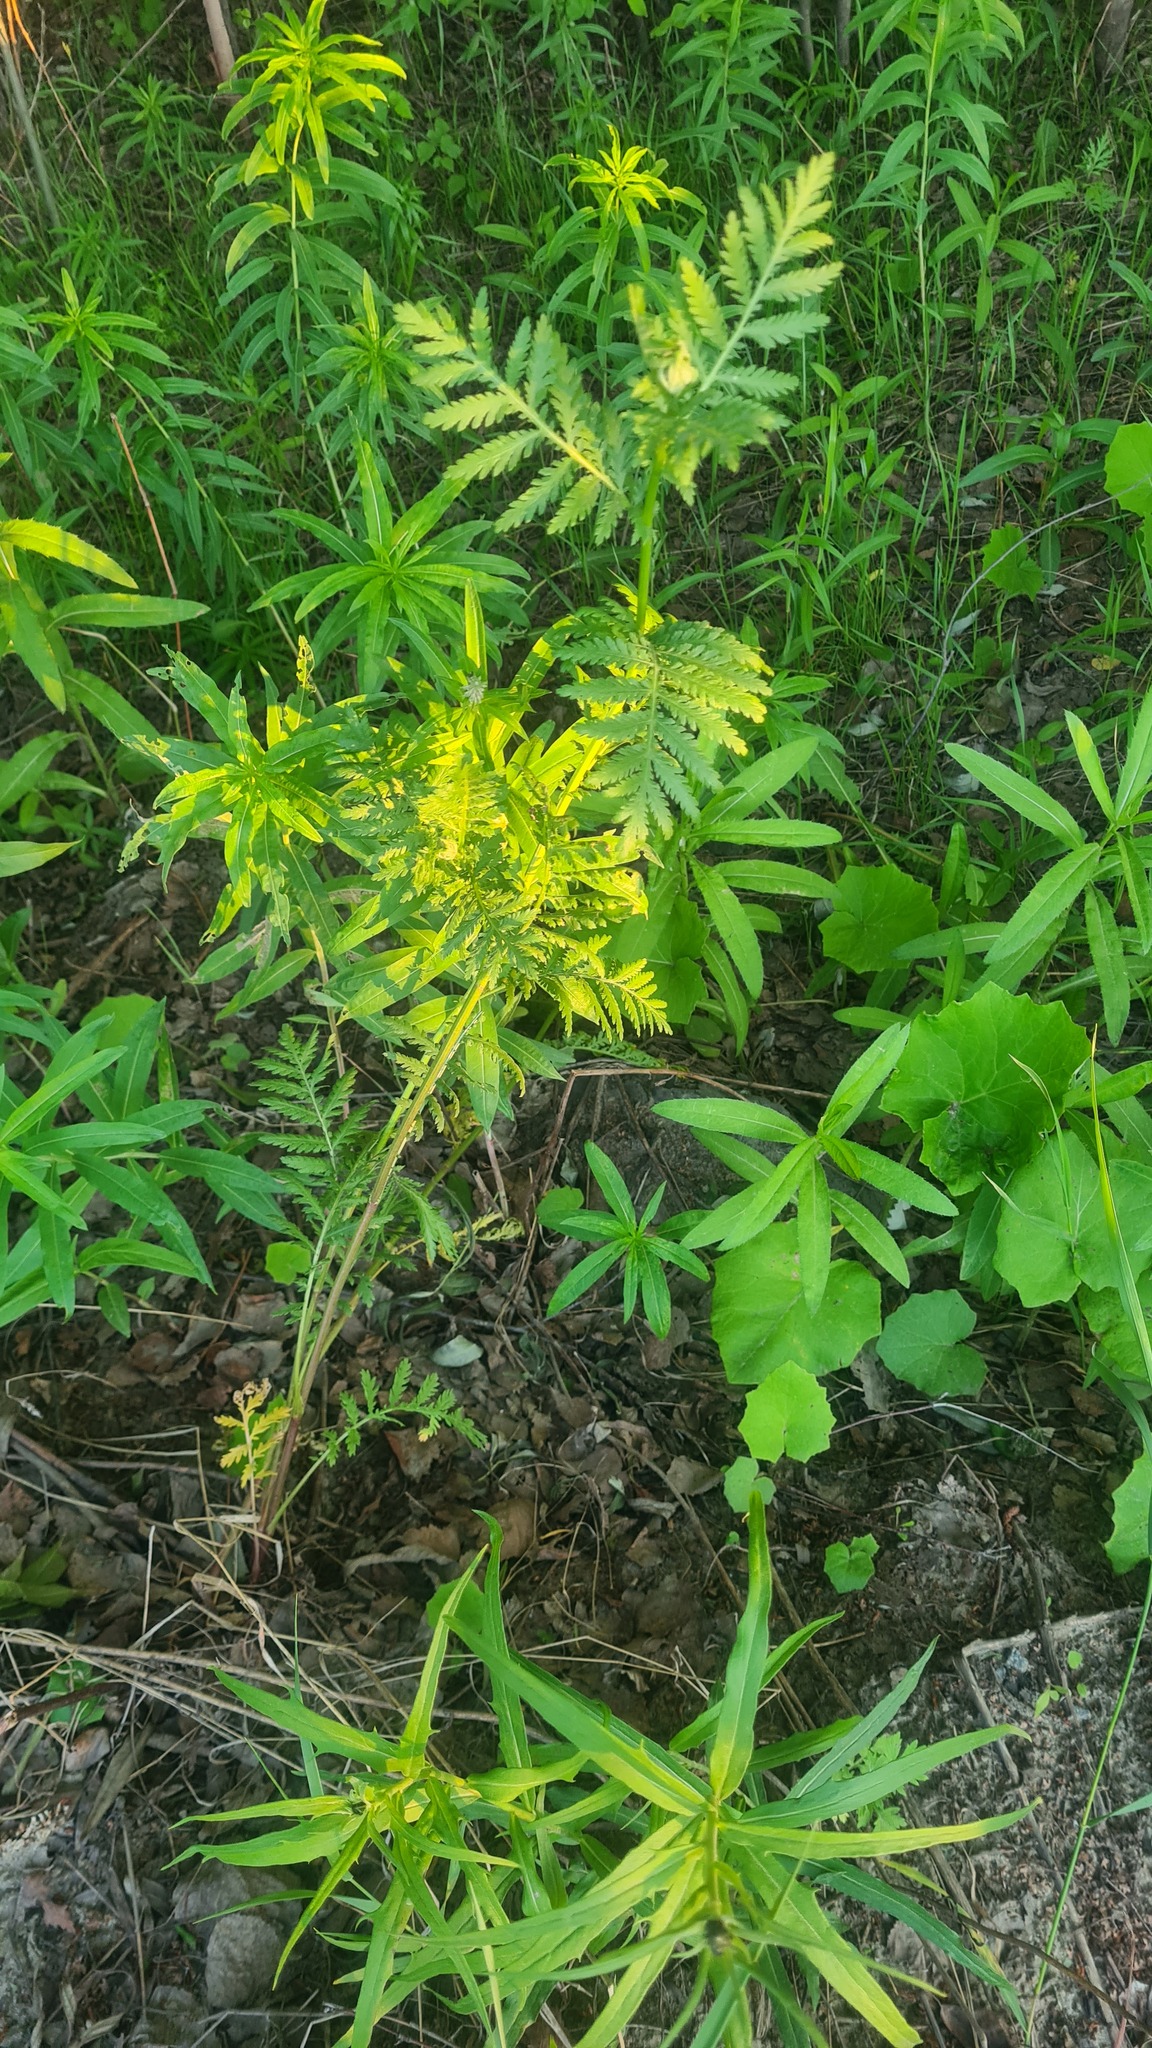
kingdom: Plantae
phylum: Tracheophyta
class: Magnoliopsida
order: Asterales
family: Asteraceae
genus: Tanacetum
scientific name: Tanacetum vulgare
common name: Common tansy
